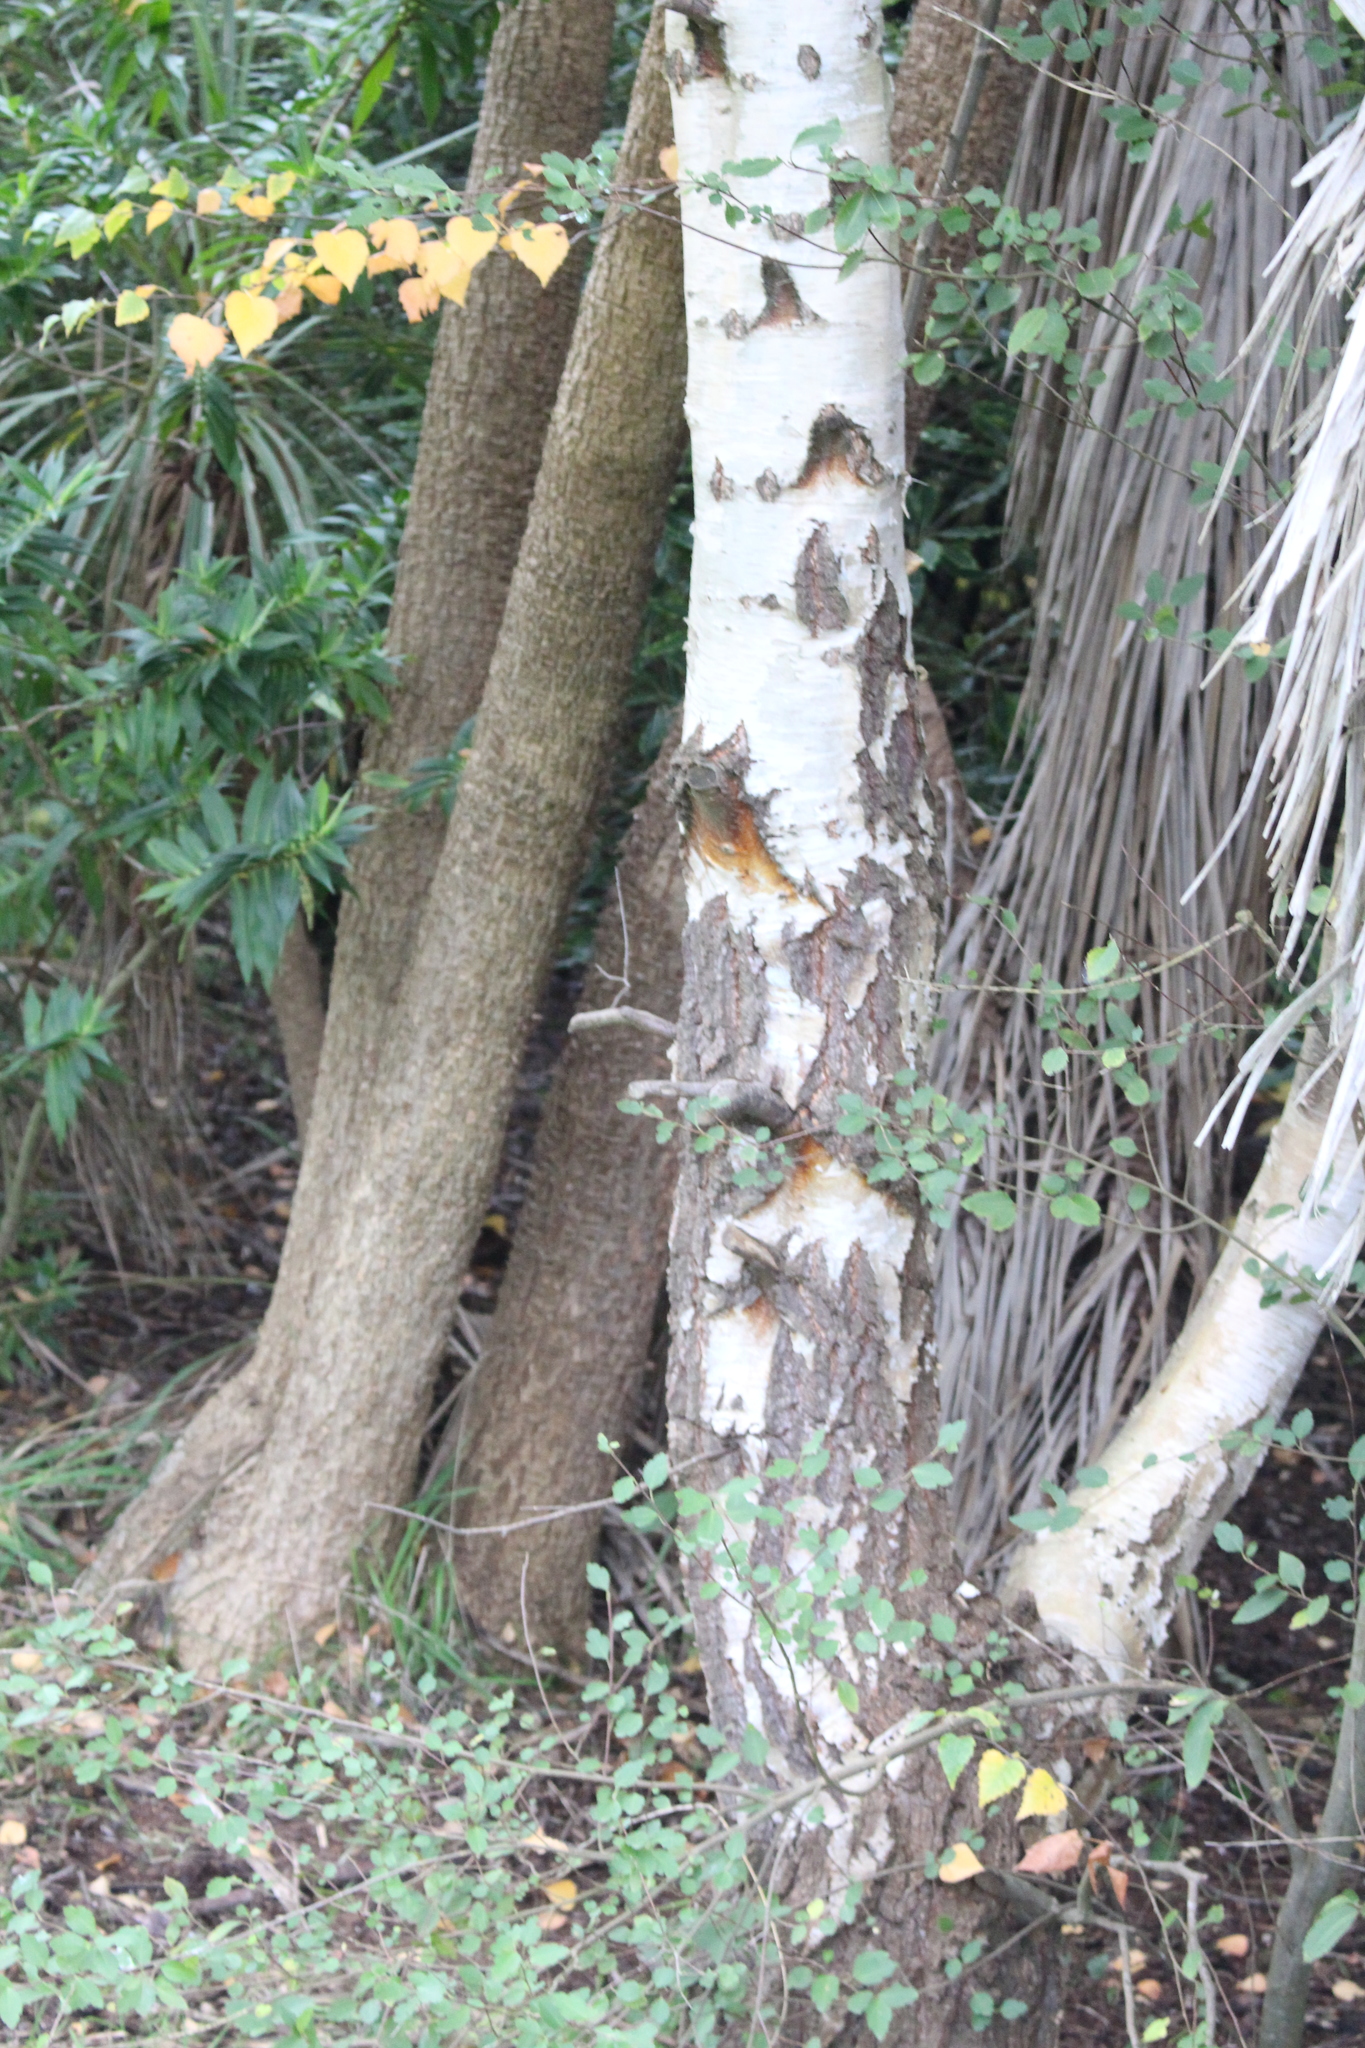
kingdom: Plantae
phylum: Tracheophyta
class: Magnoliopsida
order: Fagales
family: Betulaceae
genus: Betula
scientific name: Betula pendula
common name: Silver birch
